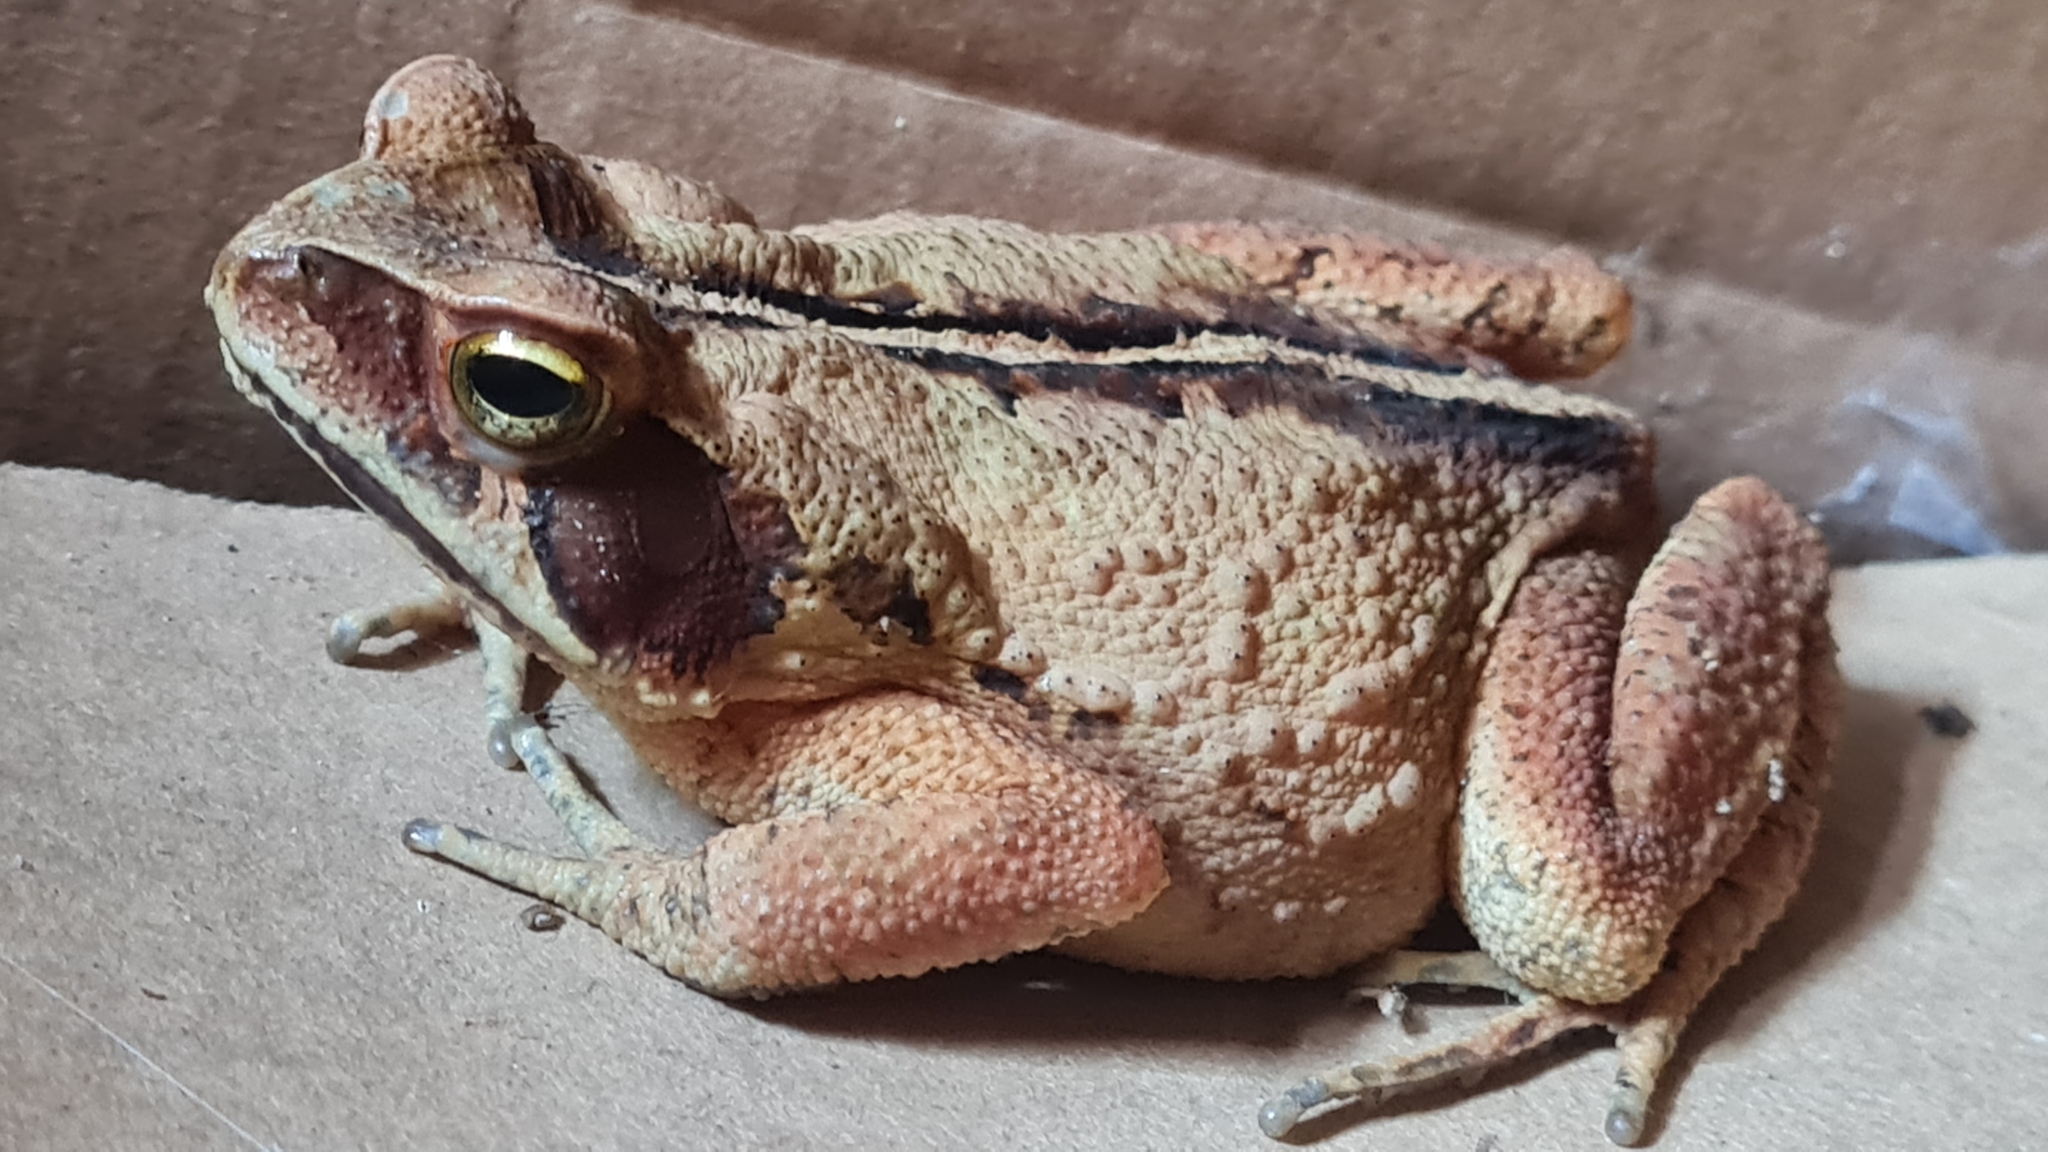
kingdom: Animalia
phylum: Chordata
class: Amphibia
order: Anura
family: Bufonidae
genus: Rhinella
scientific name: Rhinella ornata
